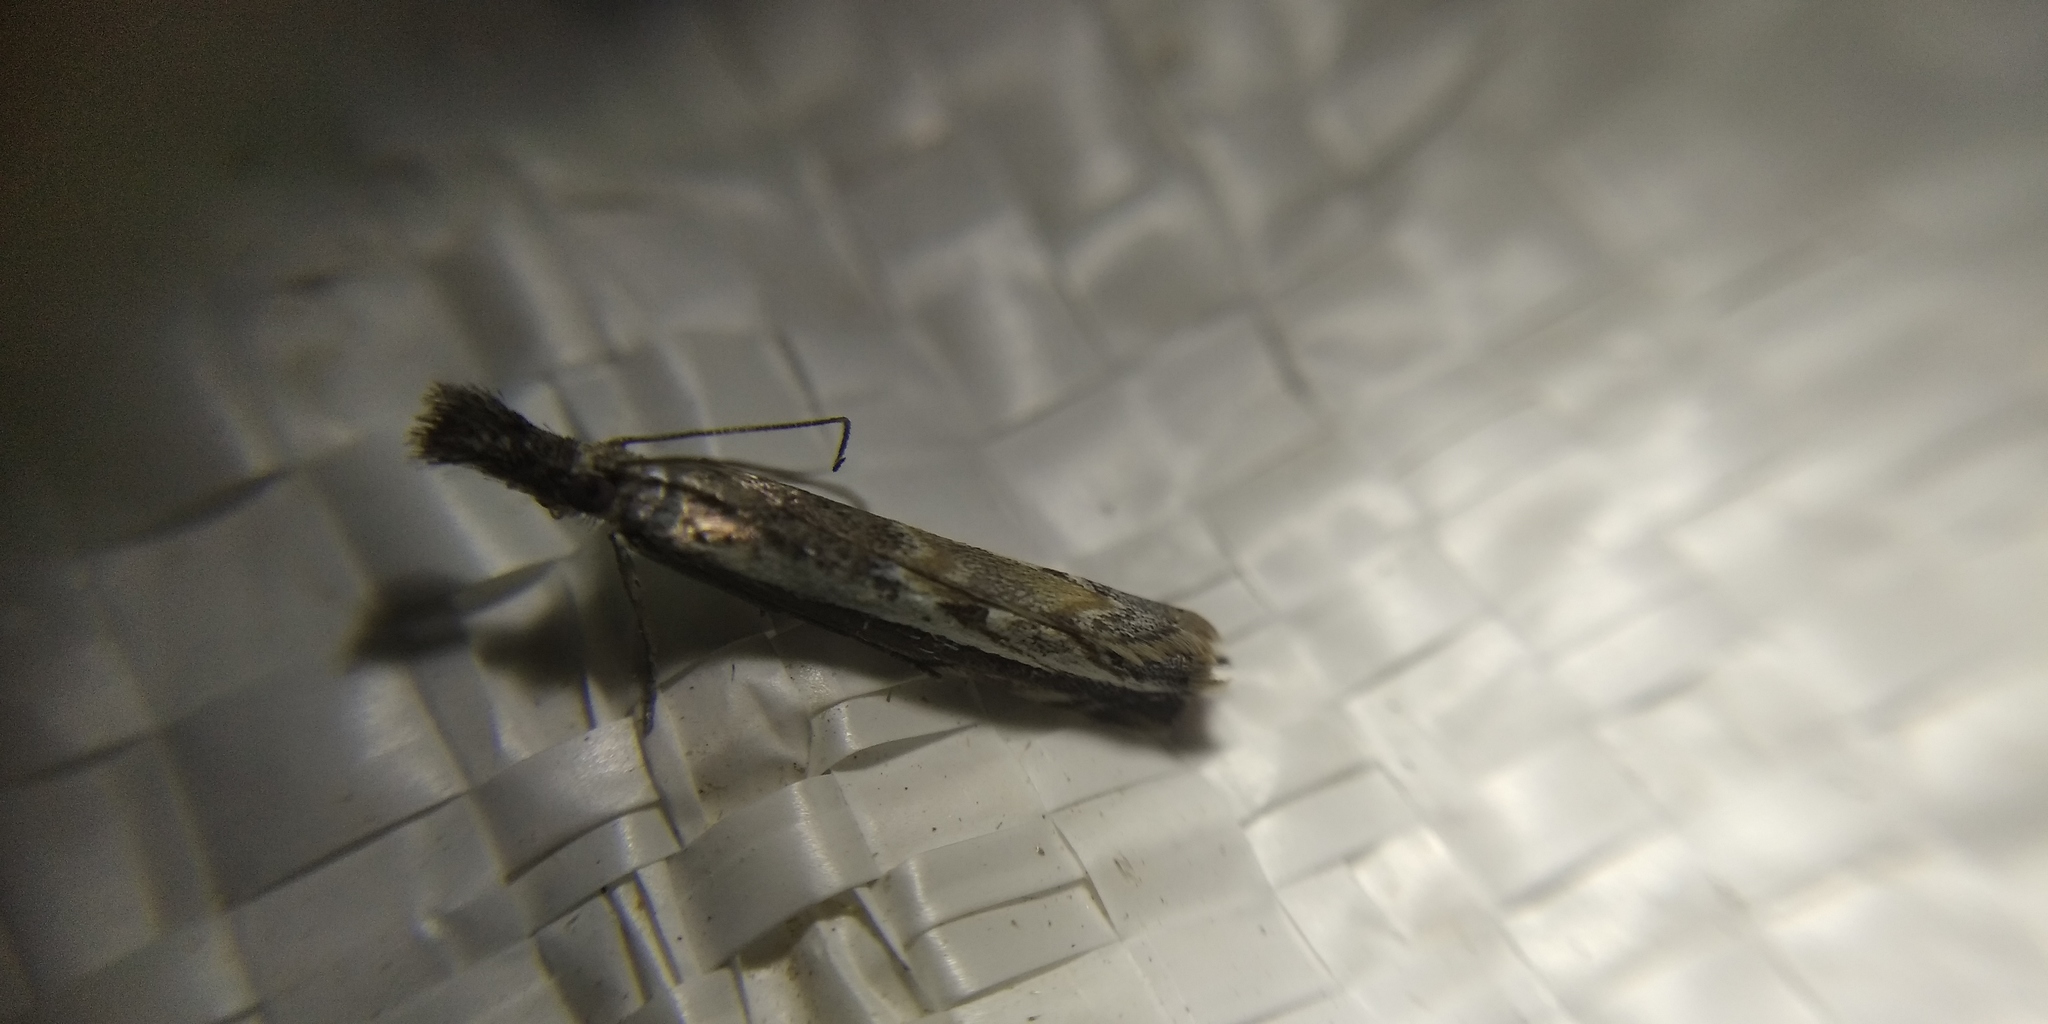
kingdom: Animalia
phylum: Arthropoda
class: Insecta
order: Lepidoptera
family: Crambidae
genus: Platytes
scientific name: Platytes alpinella
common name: Hook-tipped grass-veneer
